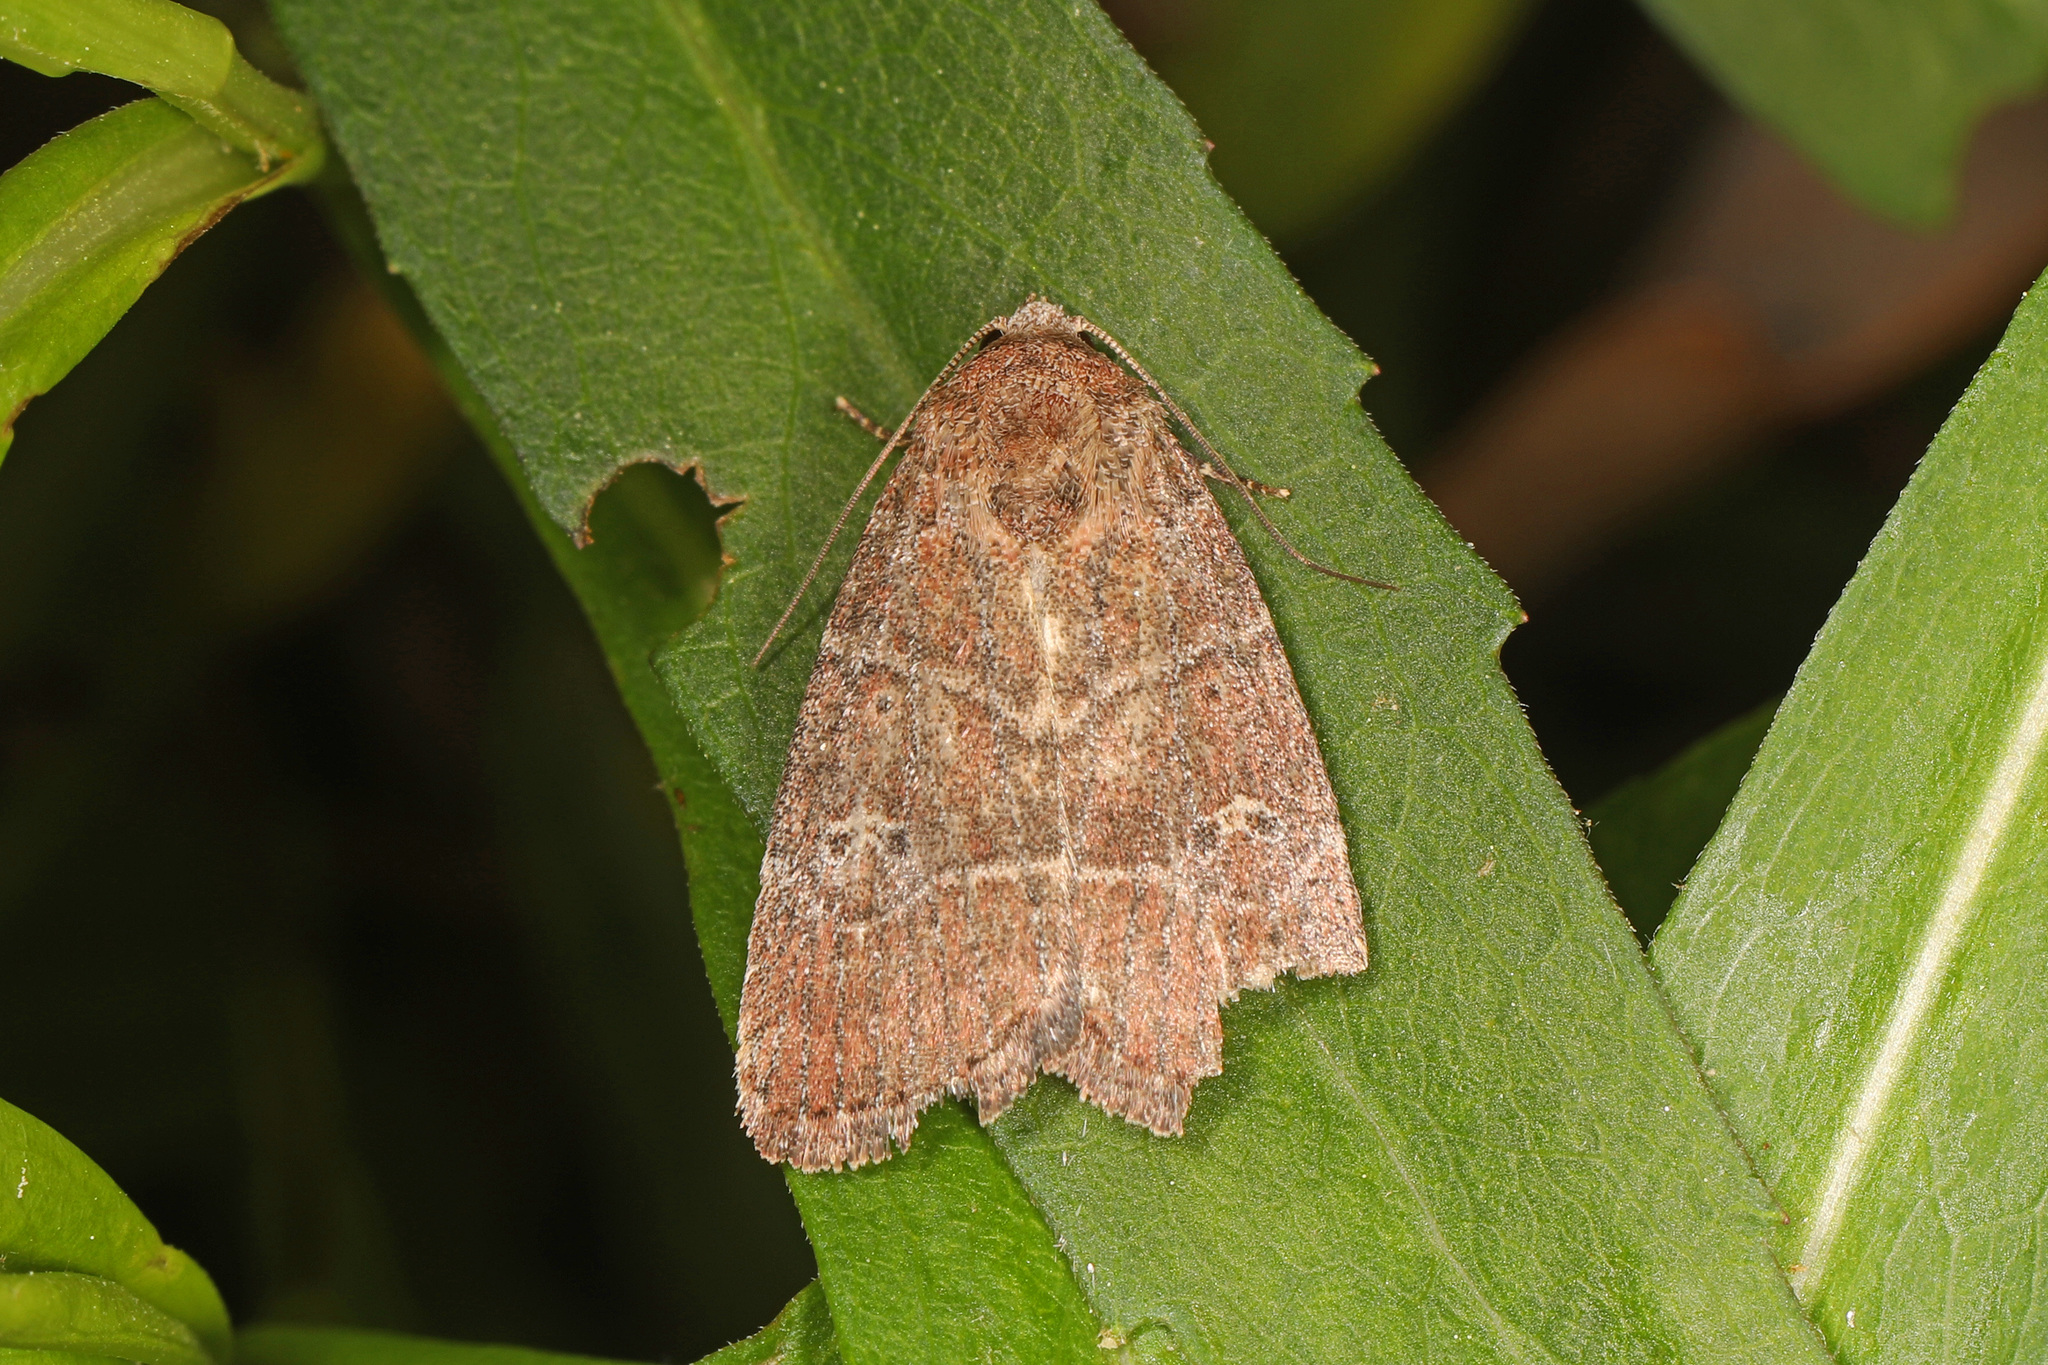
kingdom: Animalia
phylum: Arthropoda
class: Insecta
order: Lepidoptera
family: Noctuidae
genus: Elaphria
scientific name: Elaphria grata
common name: Grateful midget moth
